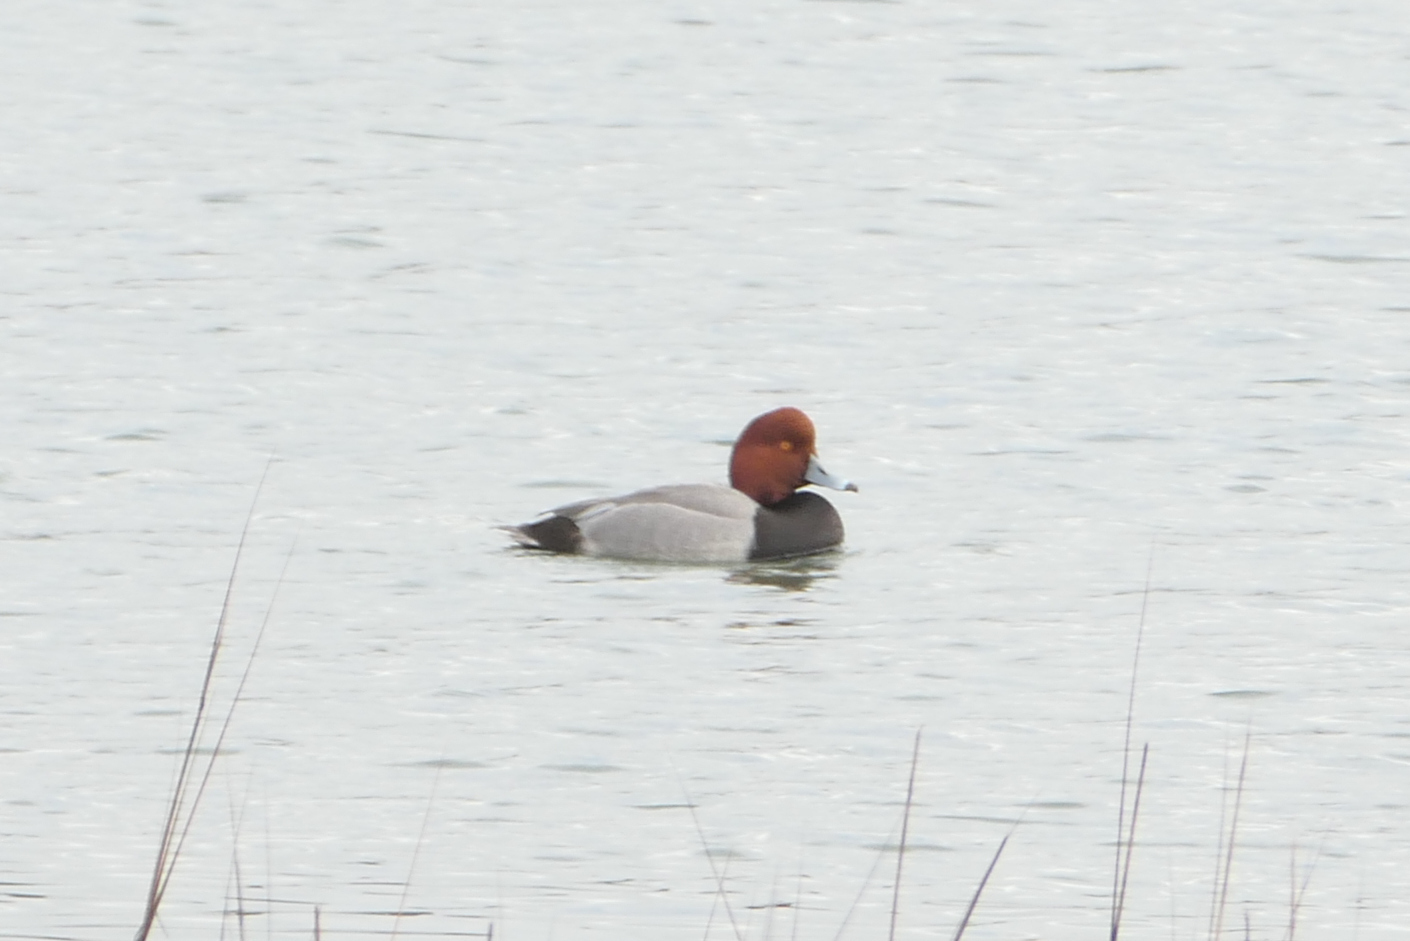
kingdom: Animalia
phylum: Chordata
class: Aves
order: Anseriformes
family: Anatidae
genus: Aythya
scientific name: Aythya americana
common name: Redhead
